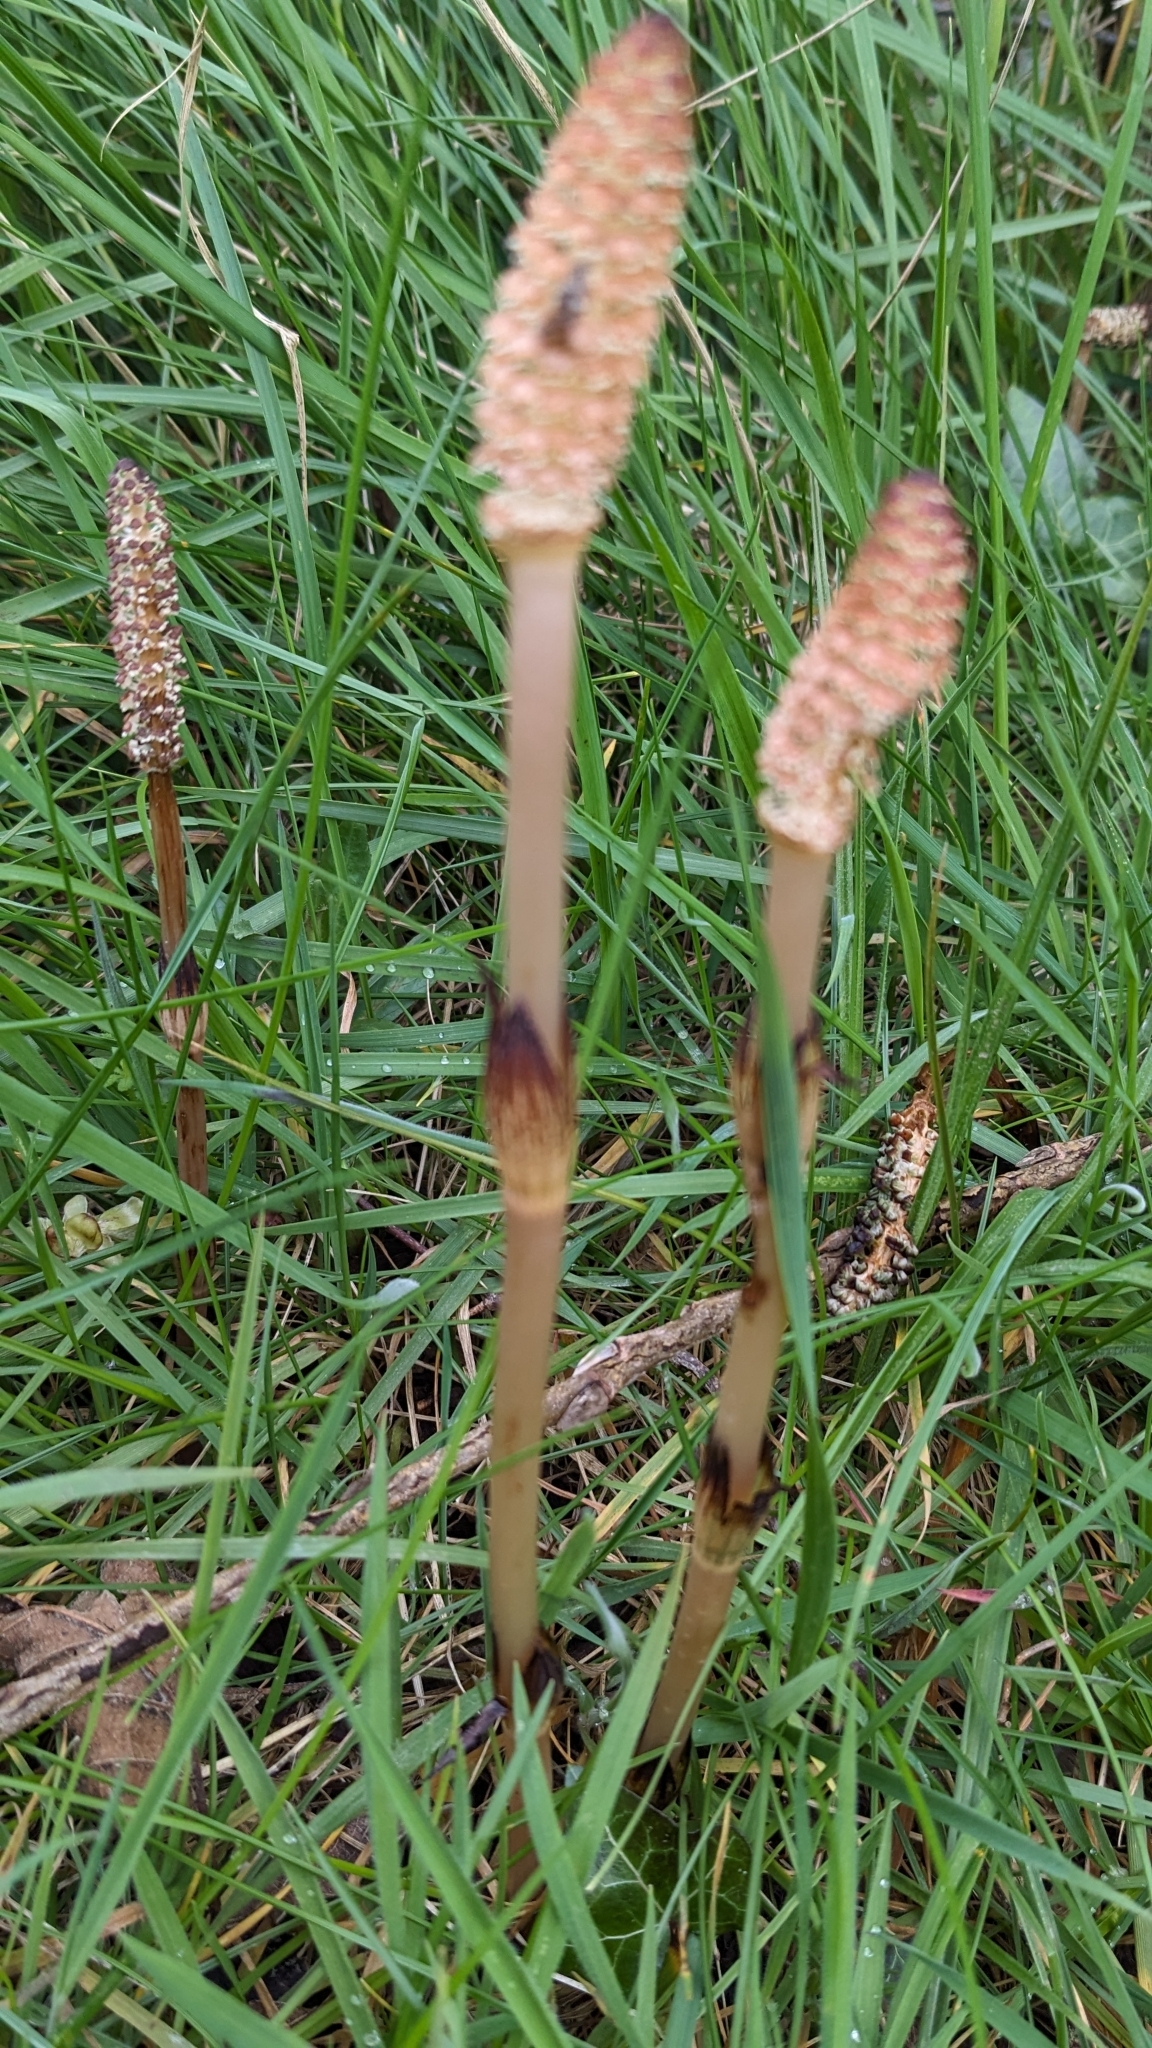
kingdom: Plantae
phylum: Tracheophyta
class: Polypodiopsida
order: Equisetales
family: Equisetaceae
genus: Equisetum
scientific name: Equisetum arvense
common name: Field horsetail
